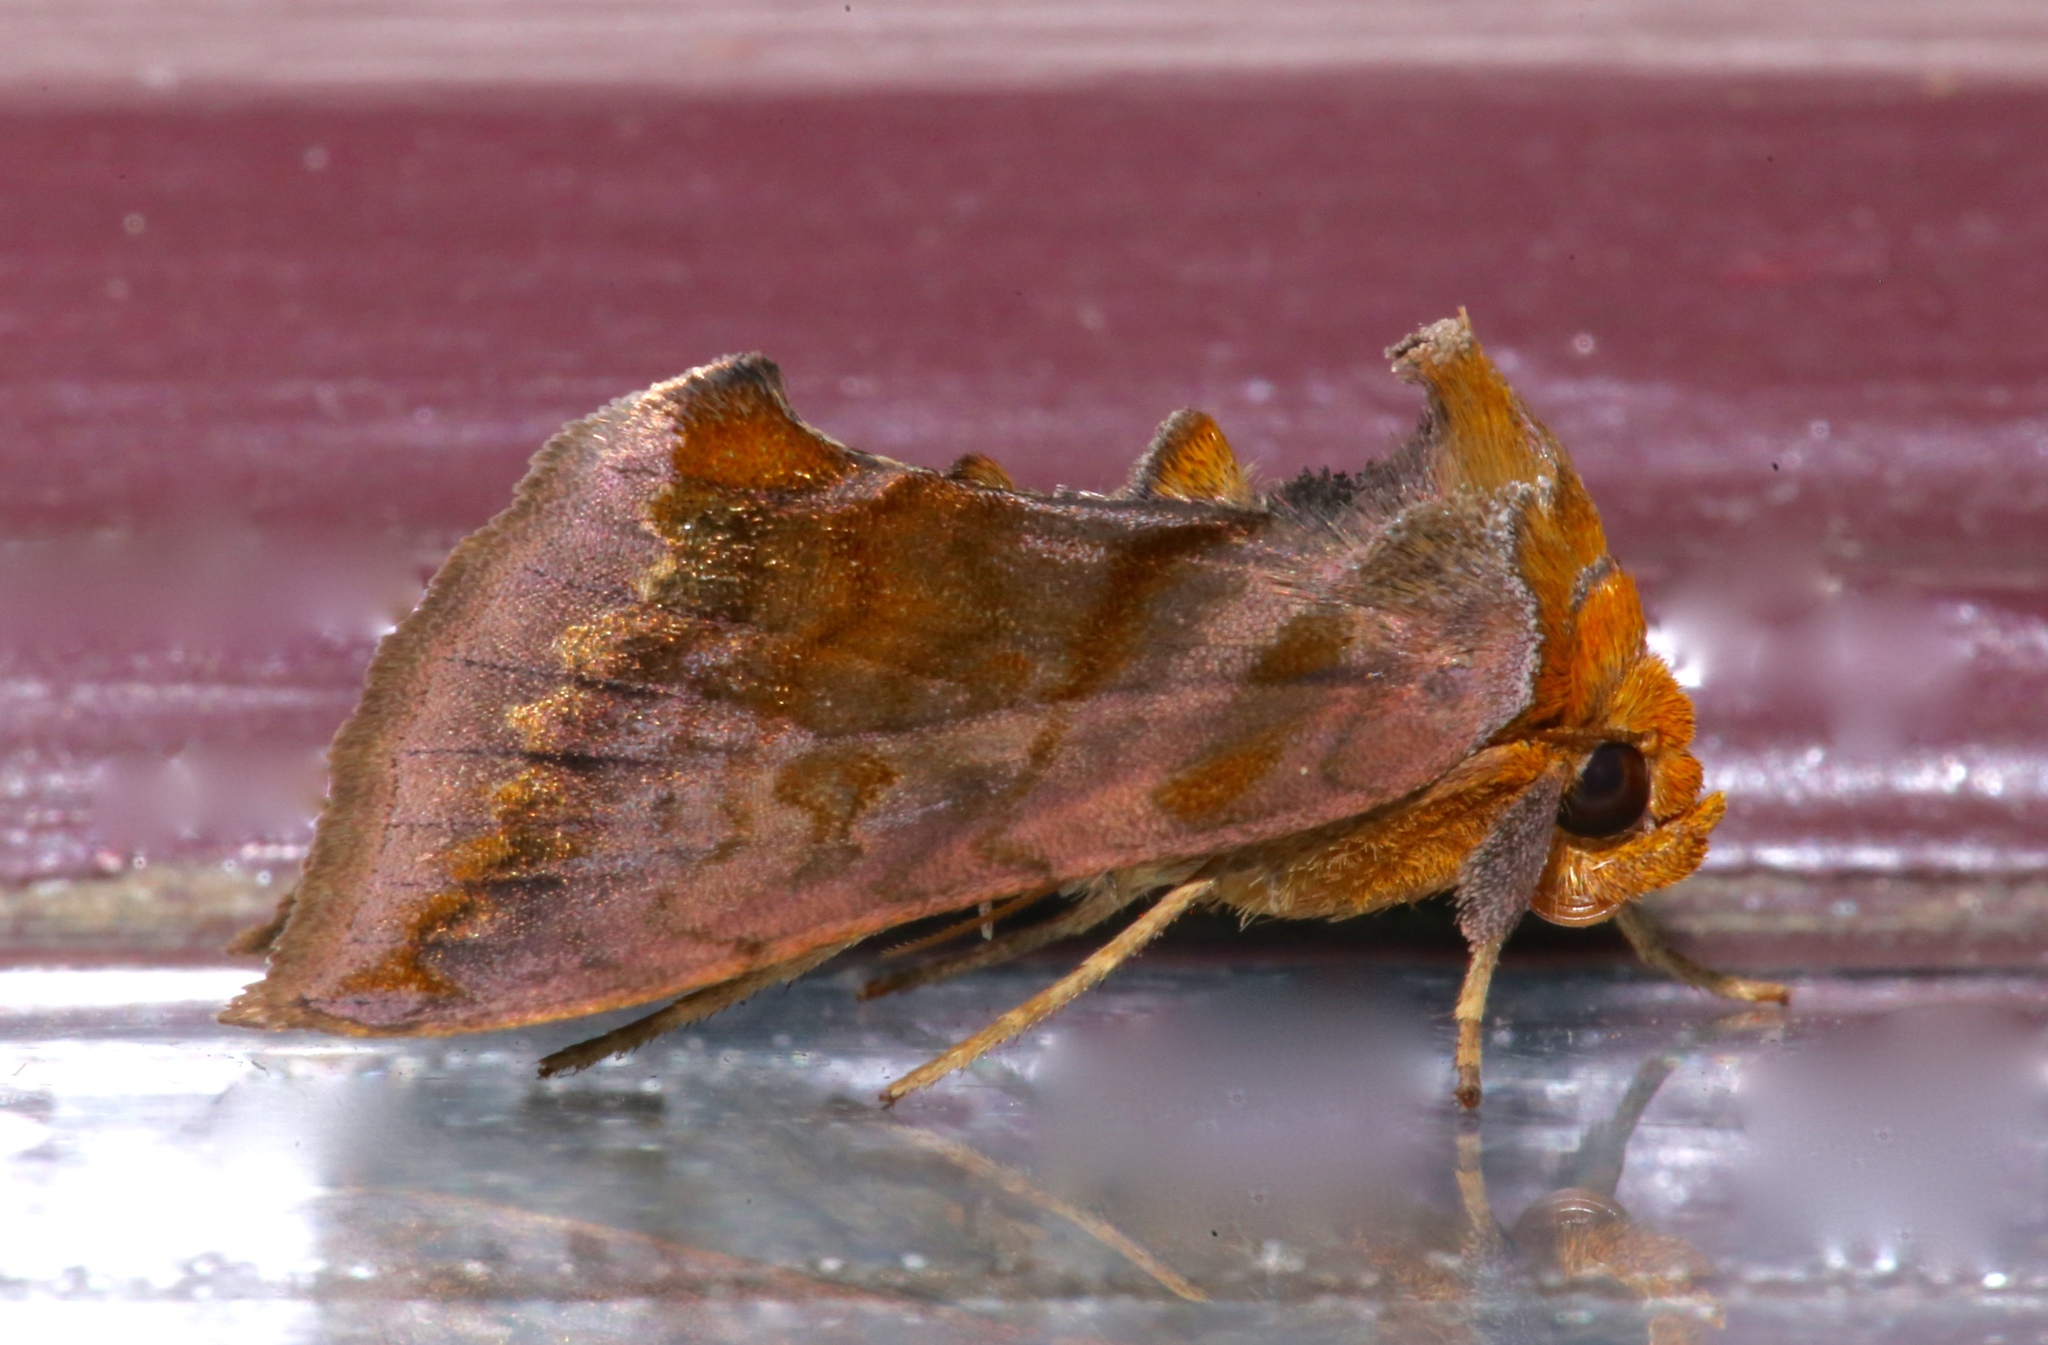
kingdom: Animalia
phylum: Arthropoda
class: Insecta
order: Lepidoptera
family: Noctuidae
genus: Allagrapha
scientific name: Allagrapha aerea
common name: Unspotted looper moth
